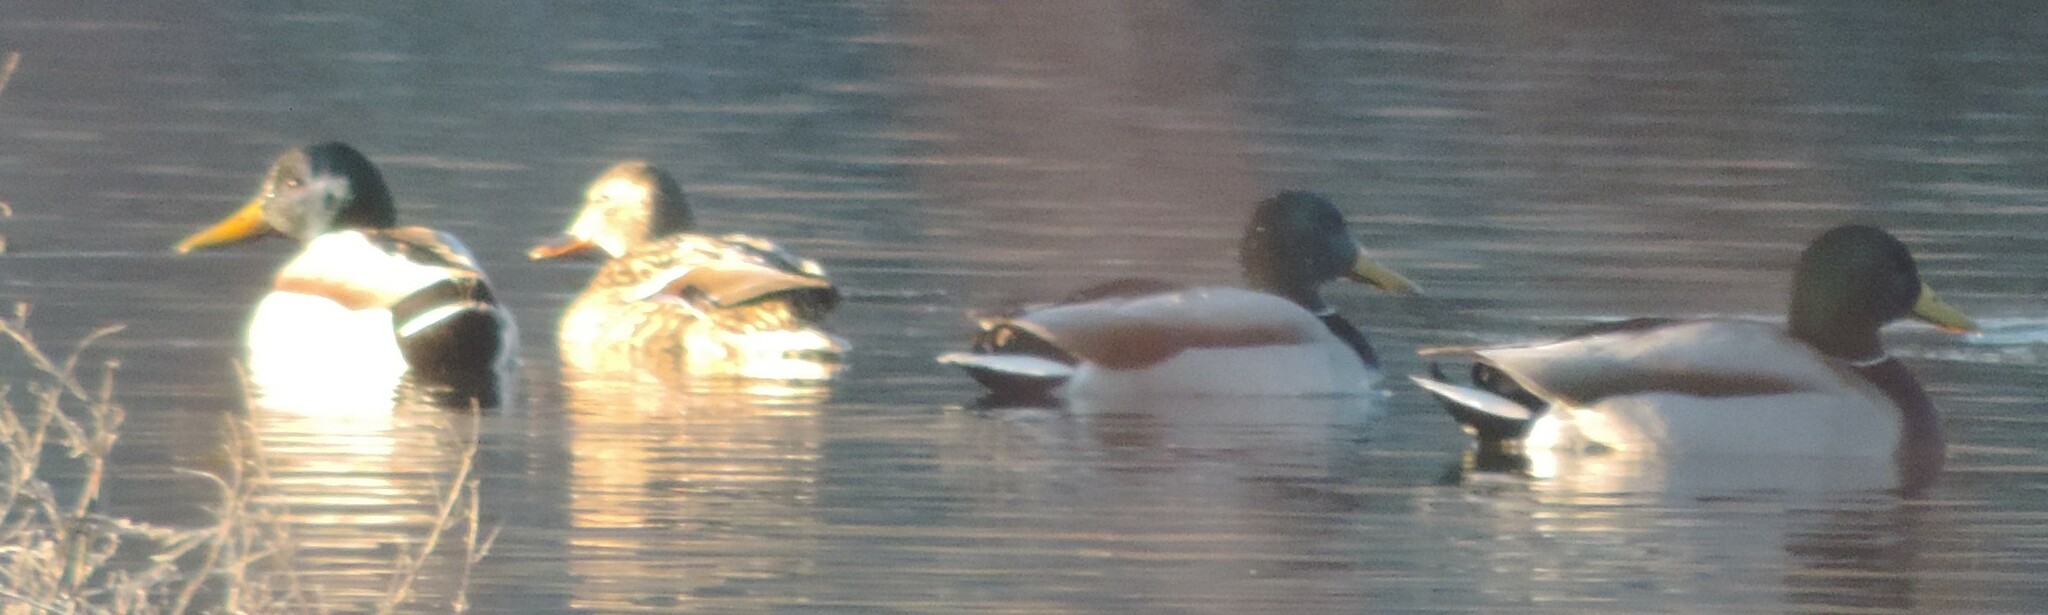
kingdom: Animalia
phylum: Chordata
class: Aves
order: Anseriformes
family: Anatidae
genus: Anas
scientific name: Anas platyrhynchos
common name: Mallard
